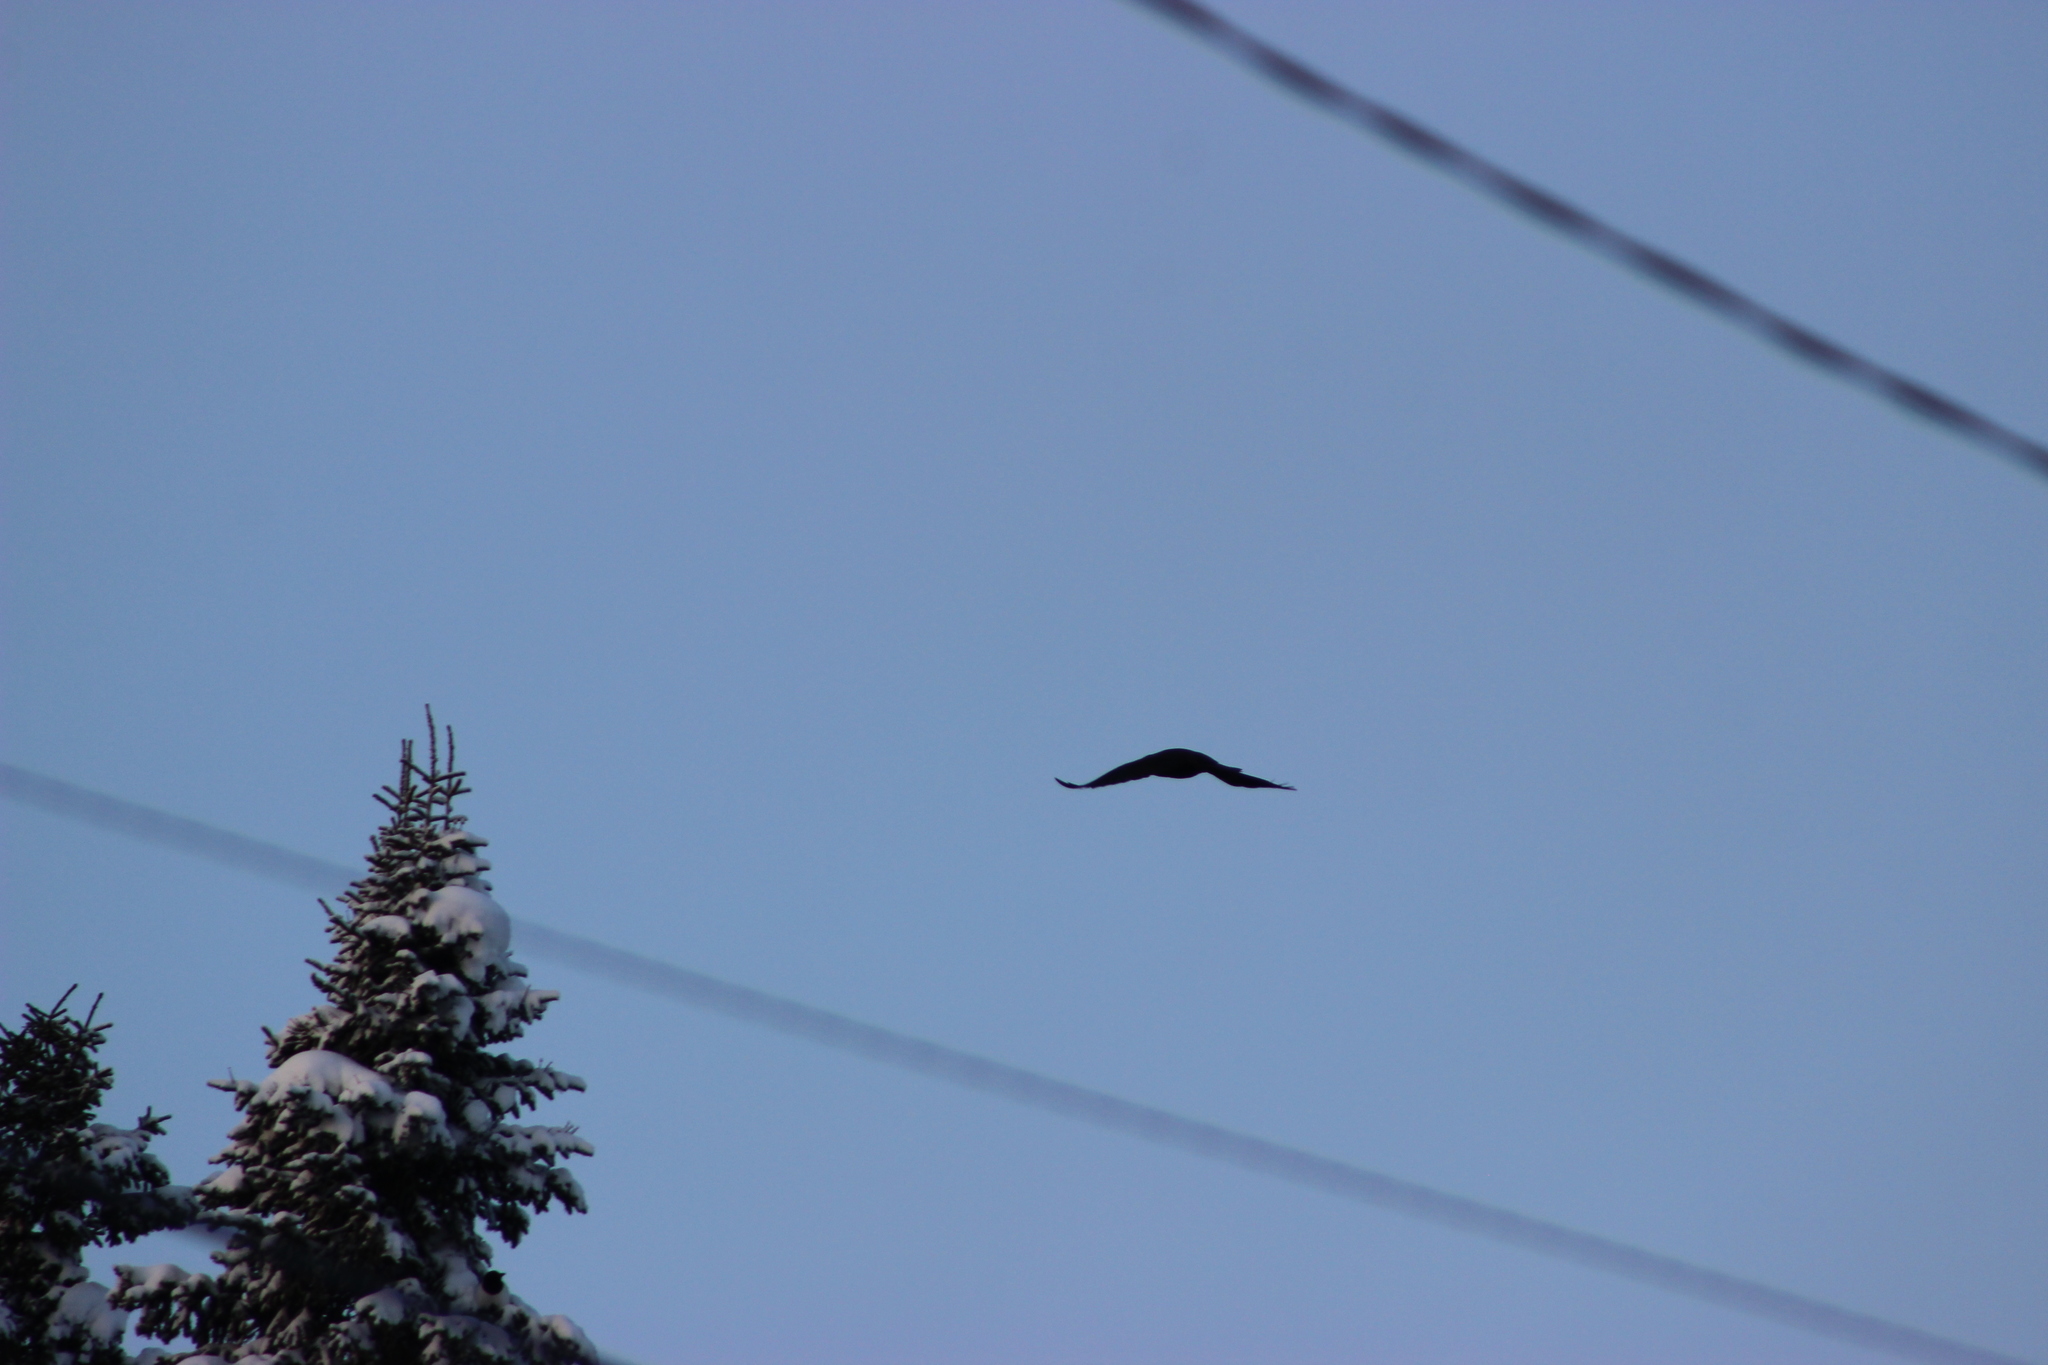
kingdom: Animalia
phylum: Chordata
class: Aves
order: Passeriformes
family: Corvidae
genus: Corvus
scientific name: Corvus corax
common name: Common raven
